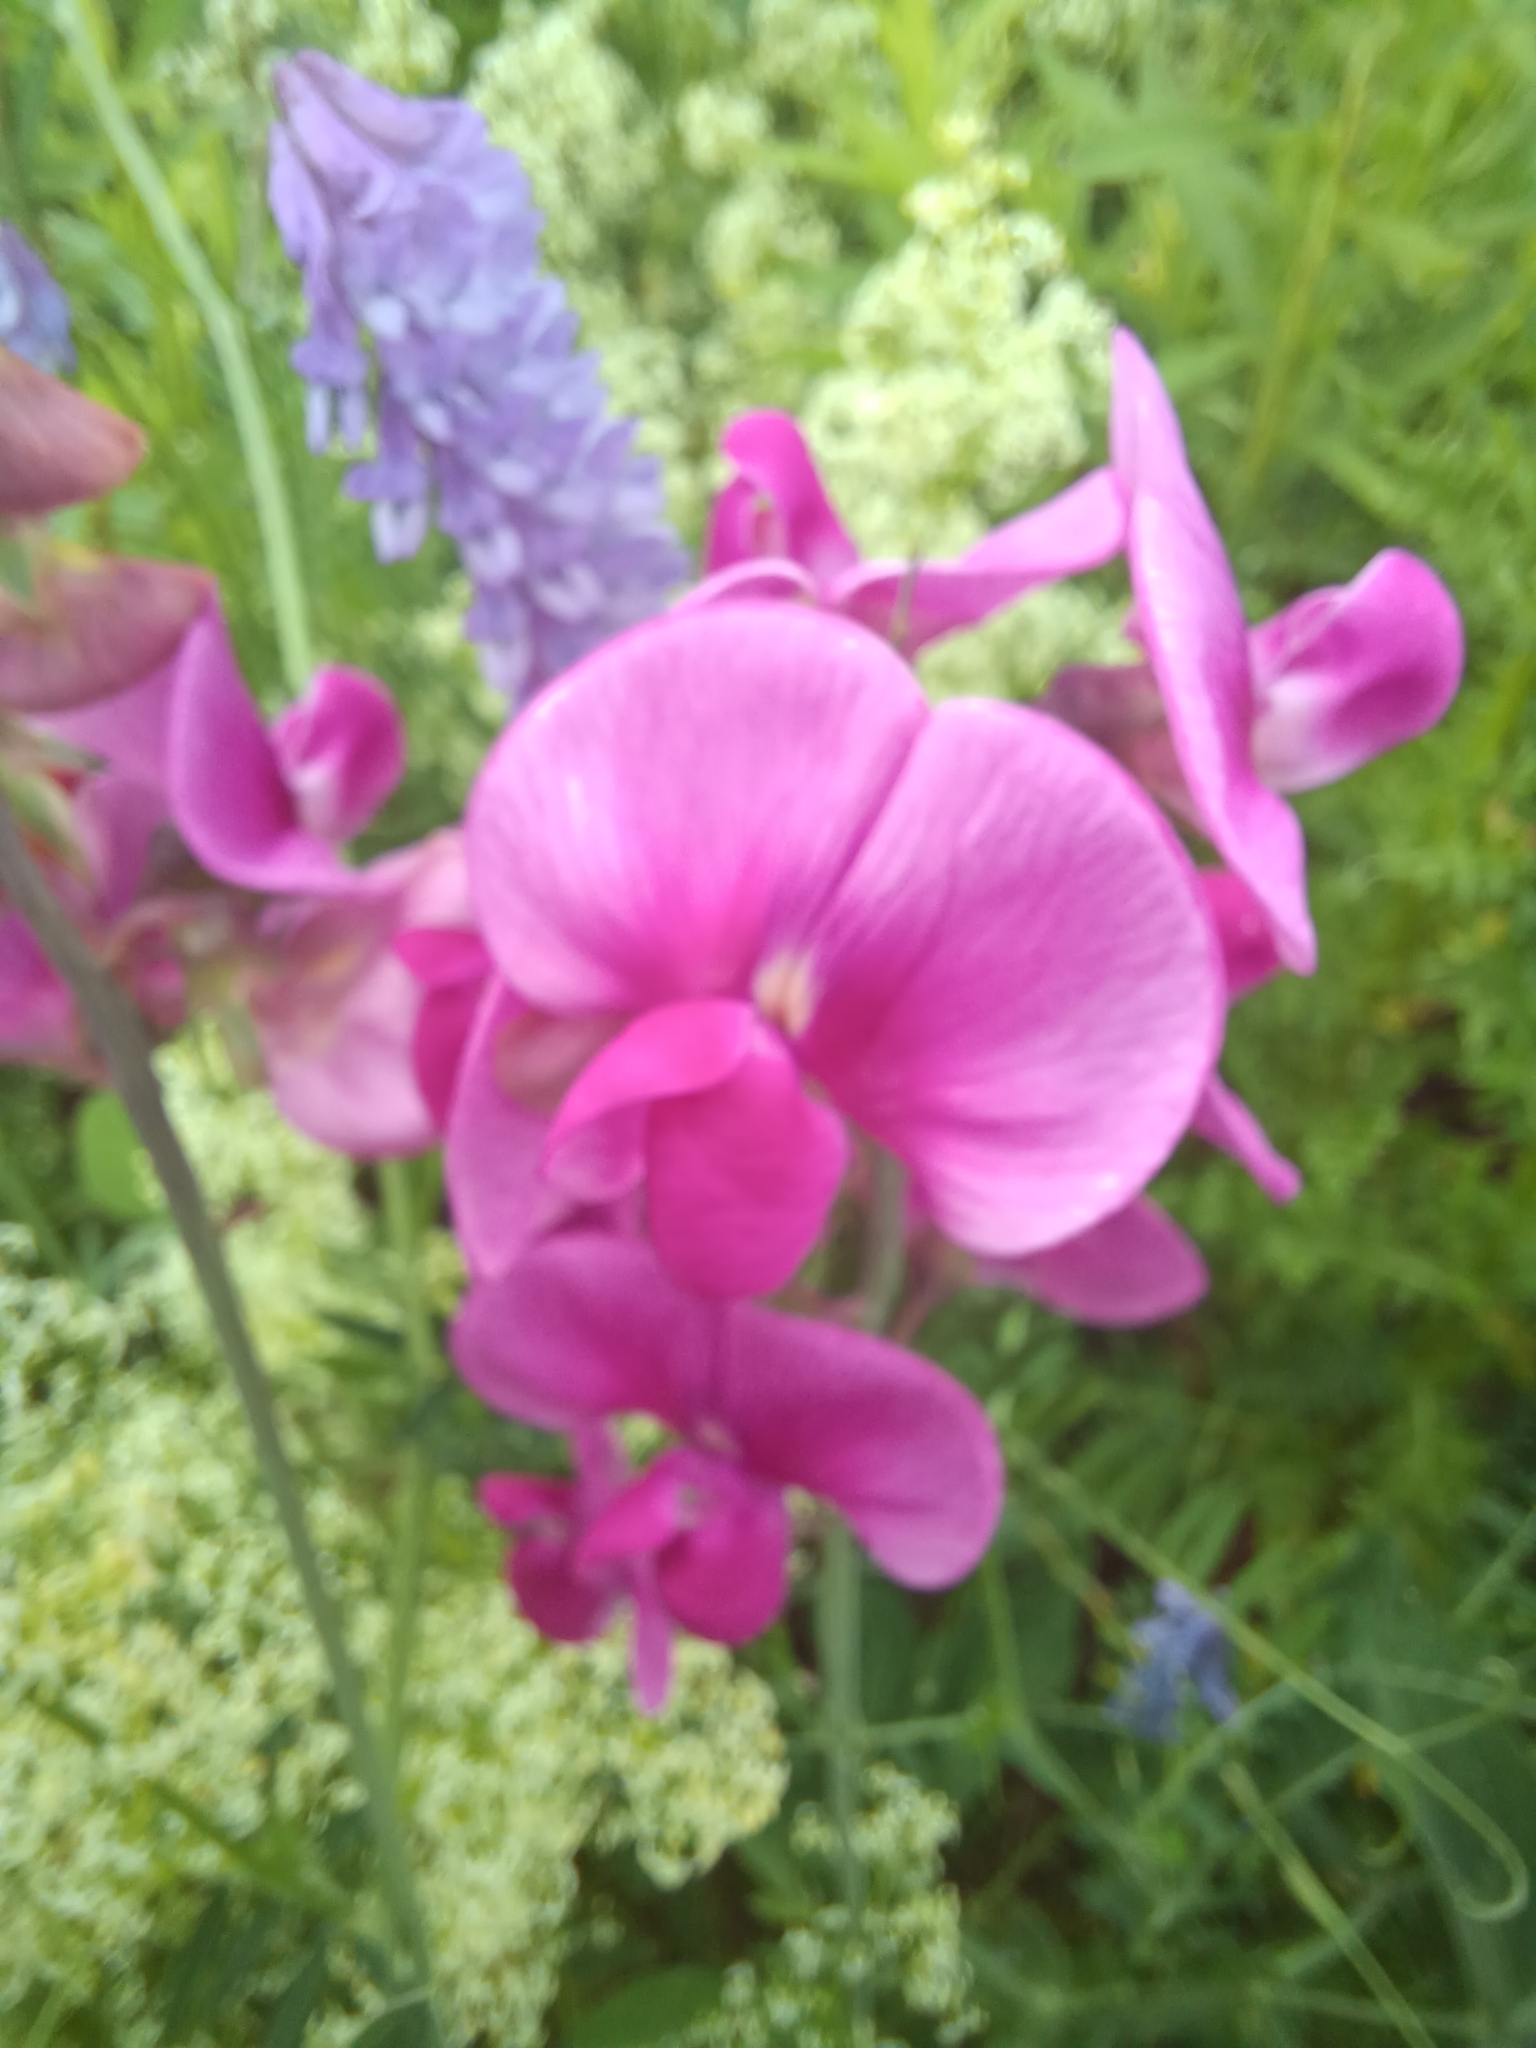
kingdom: Plantae
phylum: Tracheophyta
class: Magnoliopsida
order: Fabales
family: Fabaceae
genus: Lathyrus
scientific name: Lathyrus latifolius
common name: Perennial pea
